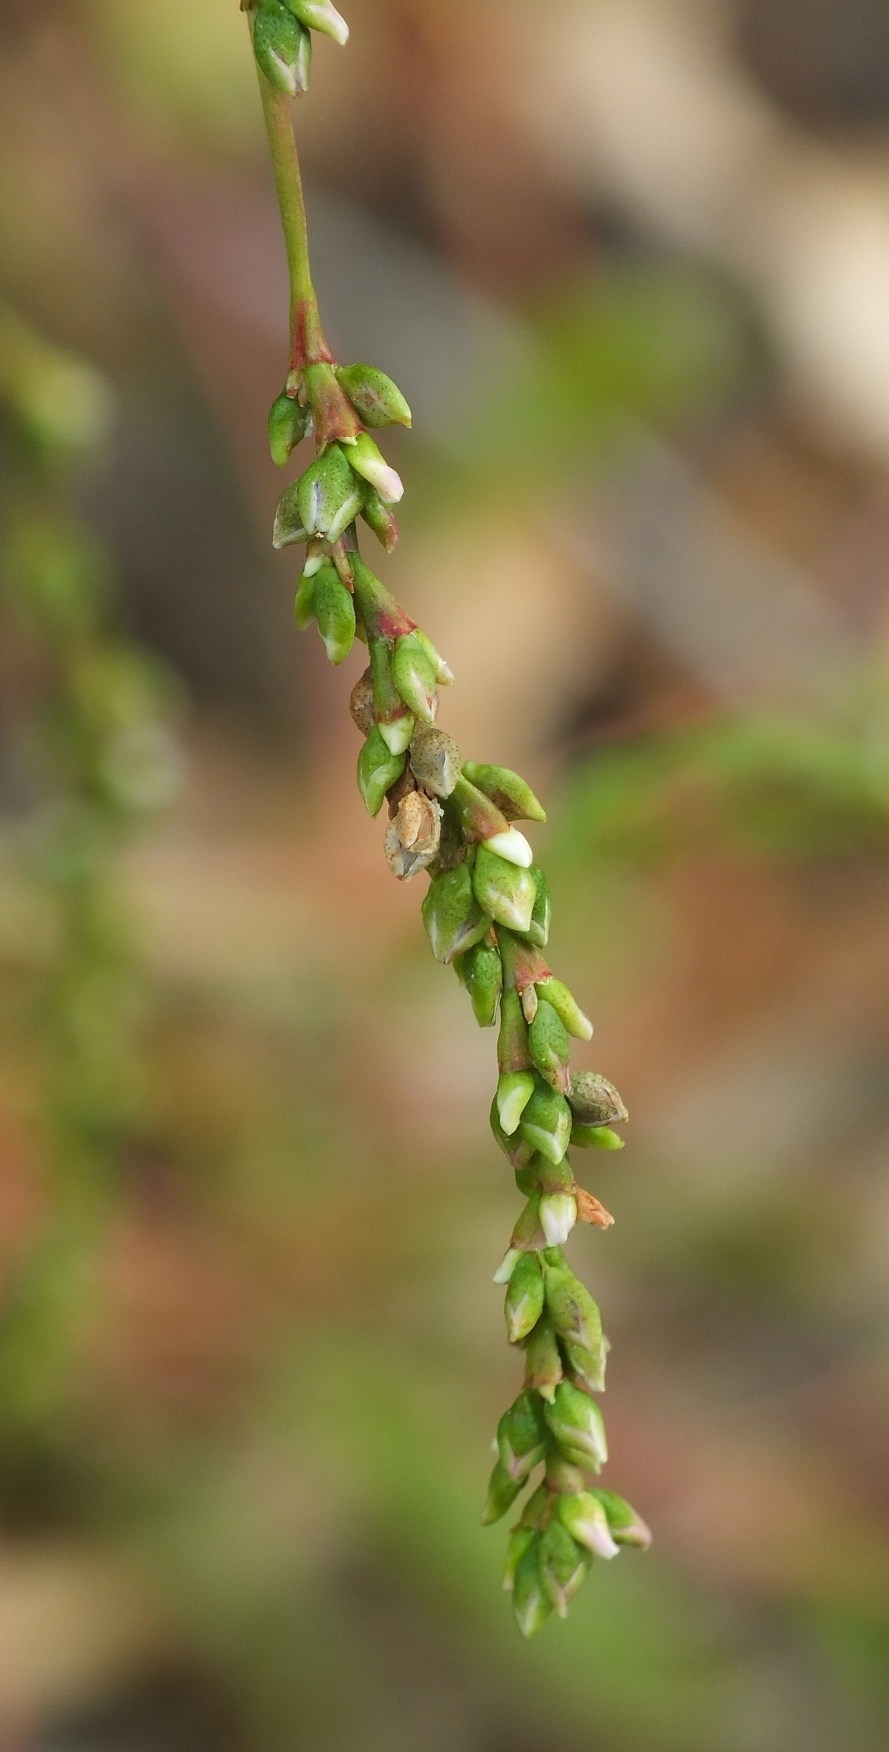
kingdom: Plantae
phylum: Tracheophyta
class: Magnoliopsida
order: Caryophyllales
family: Polygonaceae
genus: Persicaria
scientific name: Persicaria hydropiper
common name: Water-pepper
